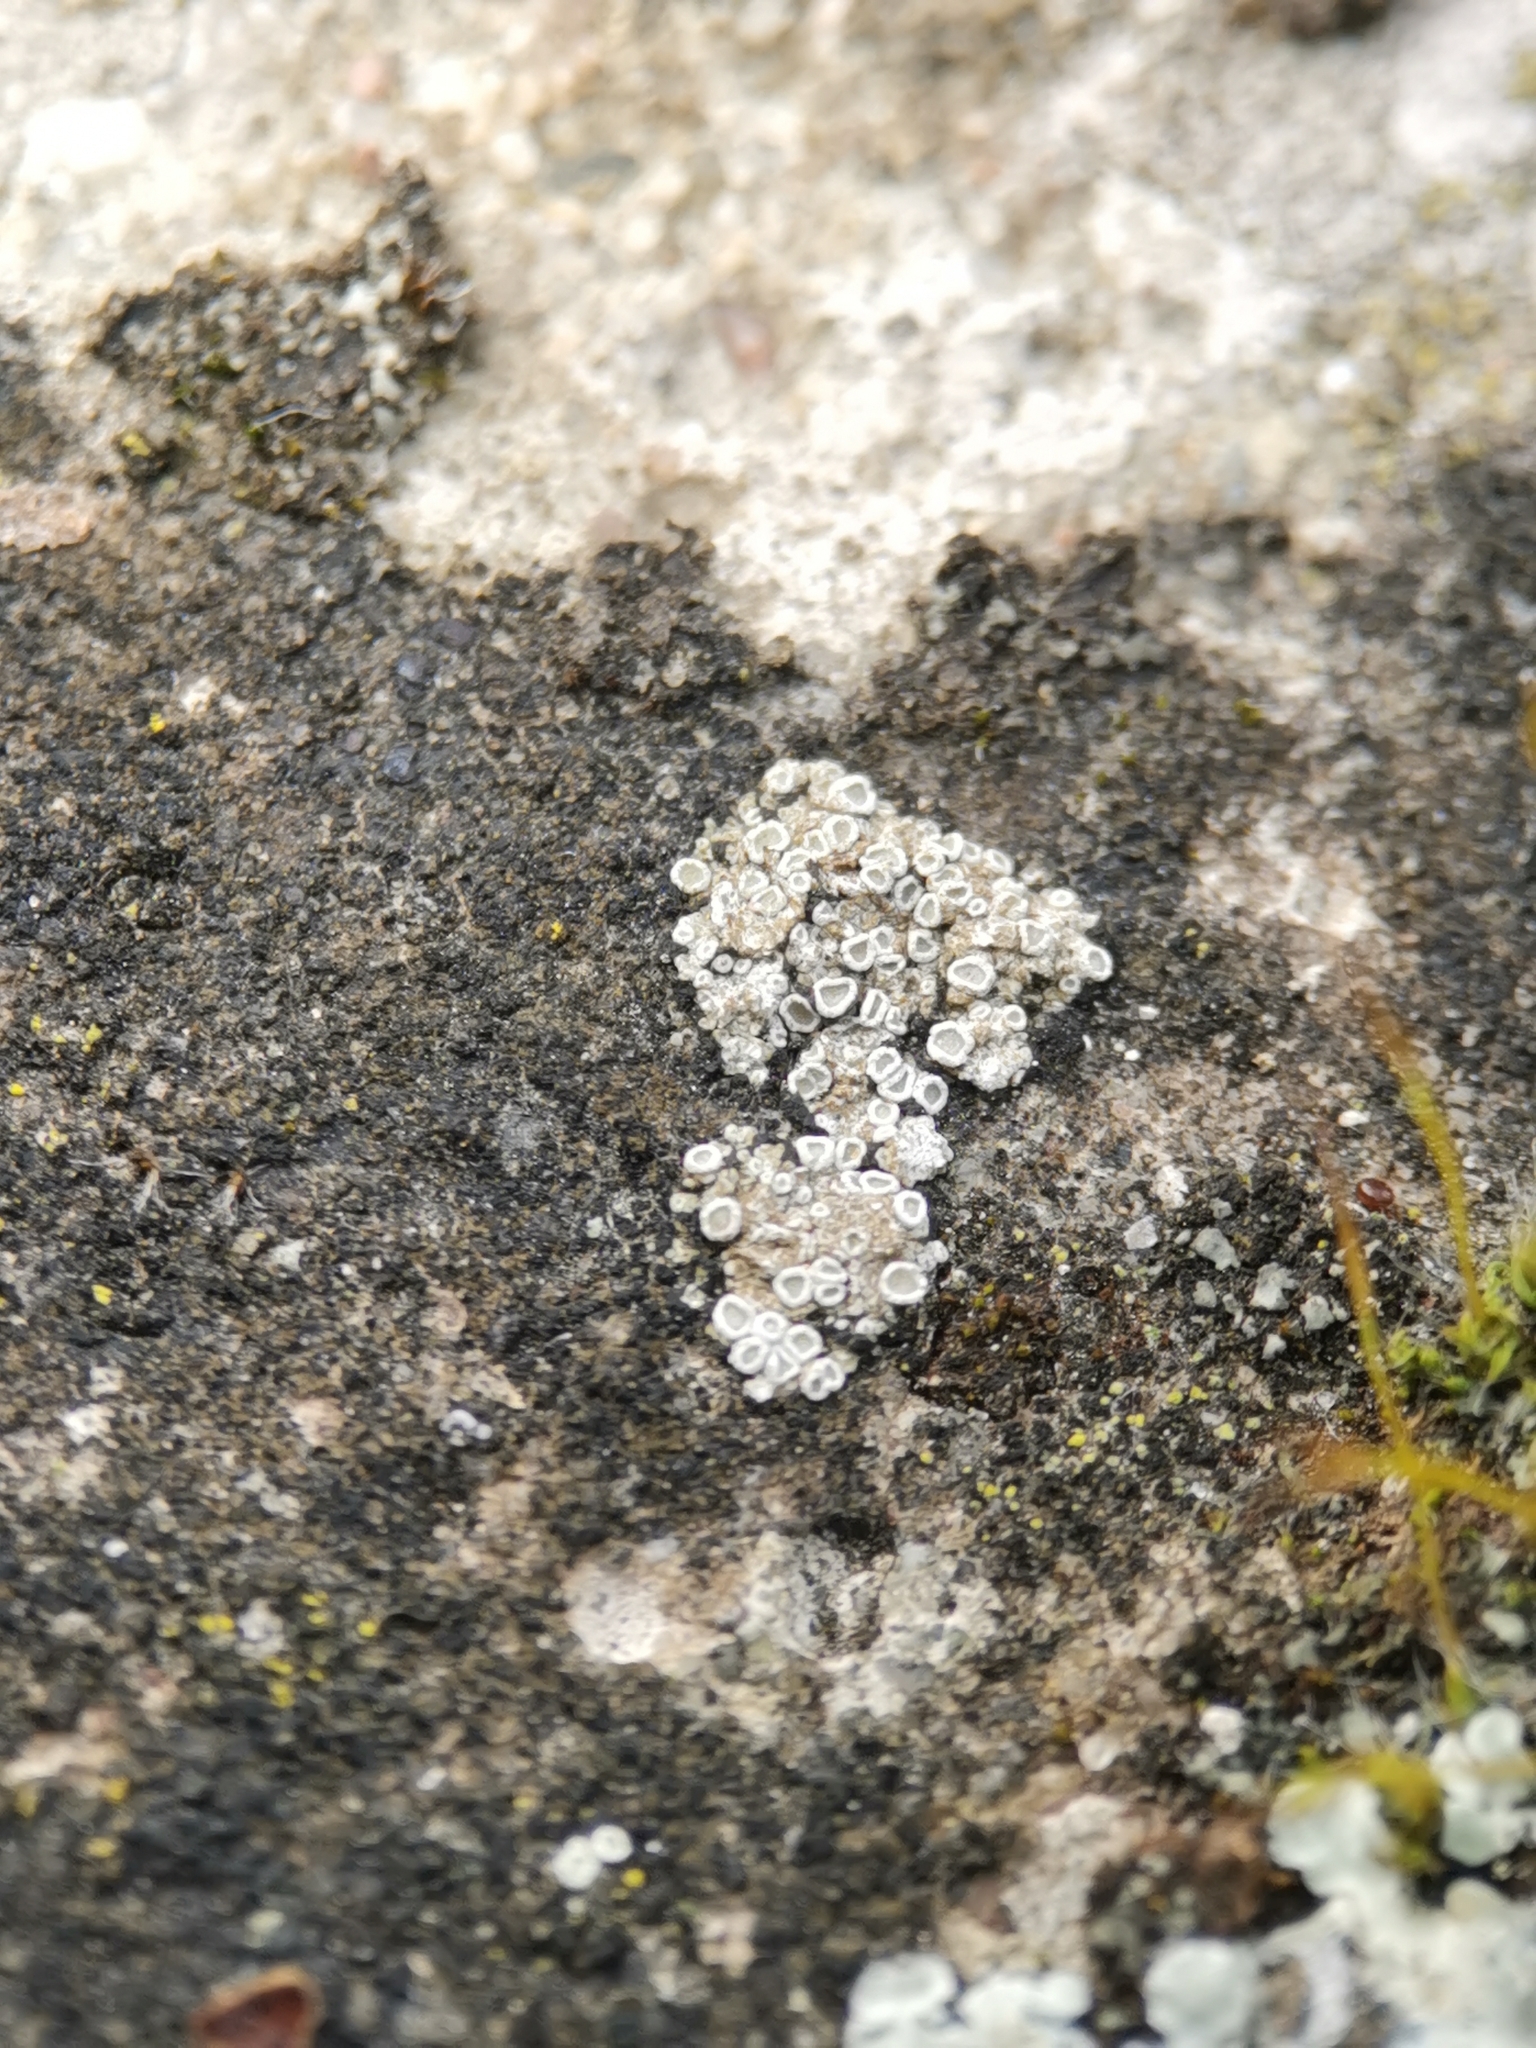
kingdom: Fungi
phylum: Ascomycota
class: Lecanoromycetes
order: Lecanorales
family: Lecanoraceae
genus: Polyozosia
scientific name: Polyozosia albescens
